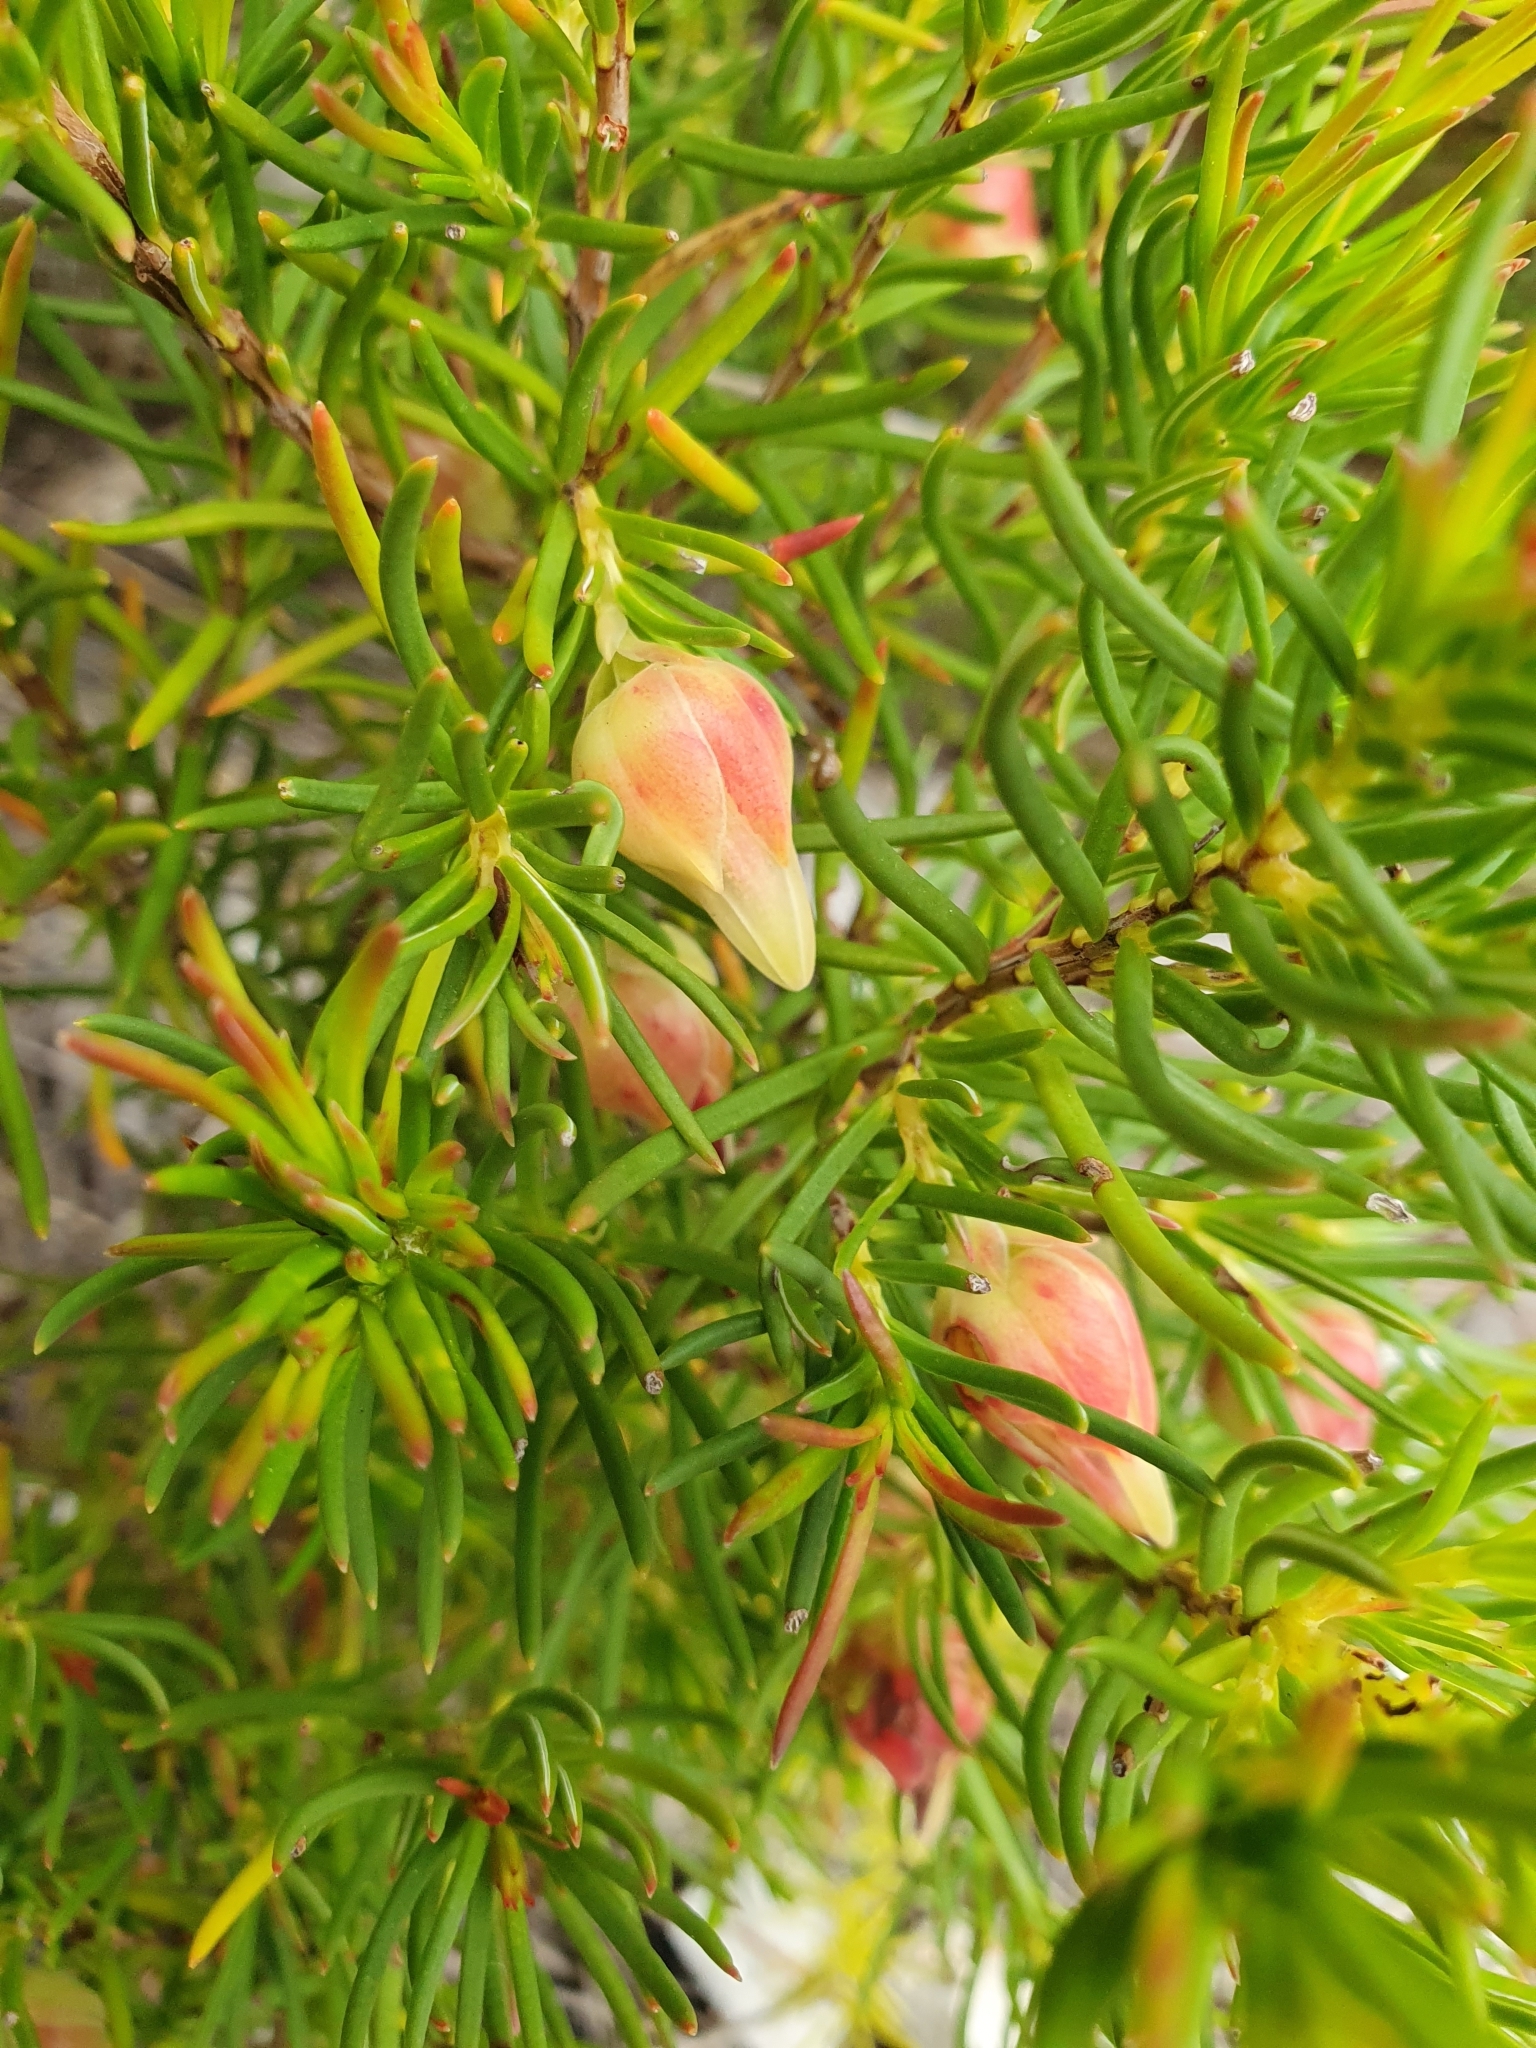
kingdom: Plantae
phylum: Tracheophyta
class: Magnoliopsida
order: Ericales
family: Ericaceae
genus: Erica
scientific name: Erica lanuginosa
